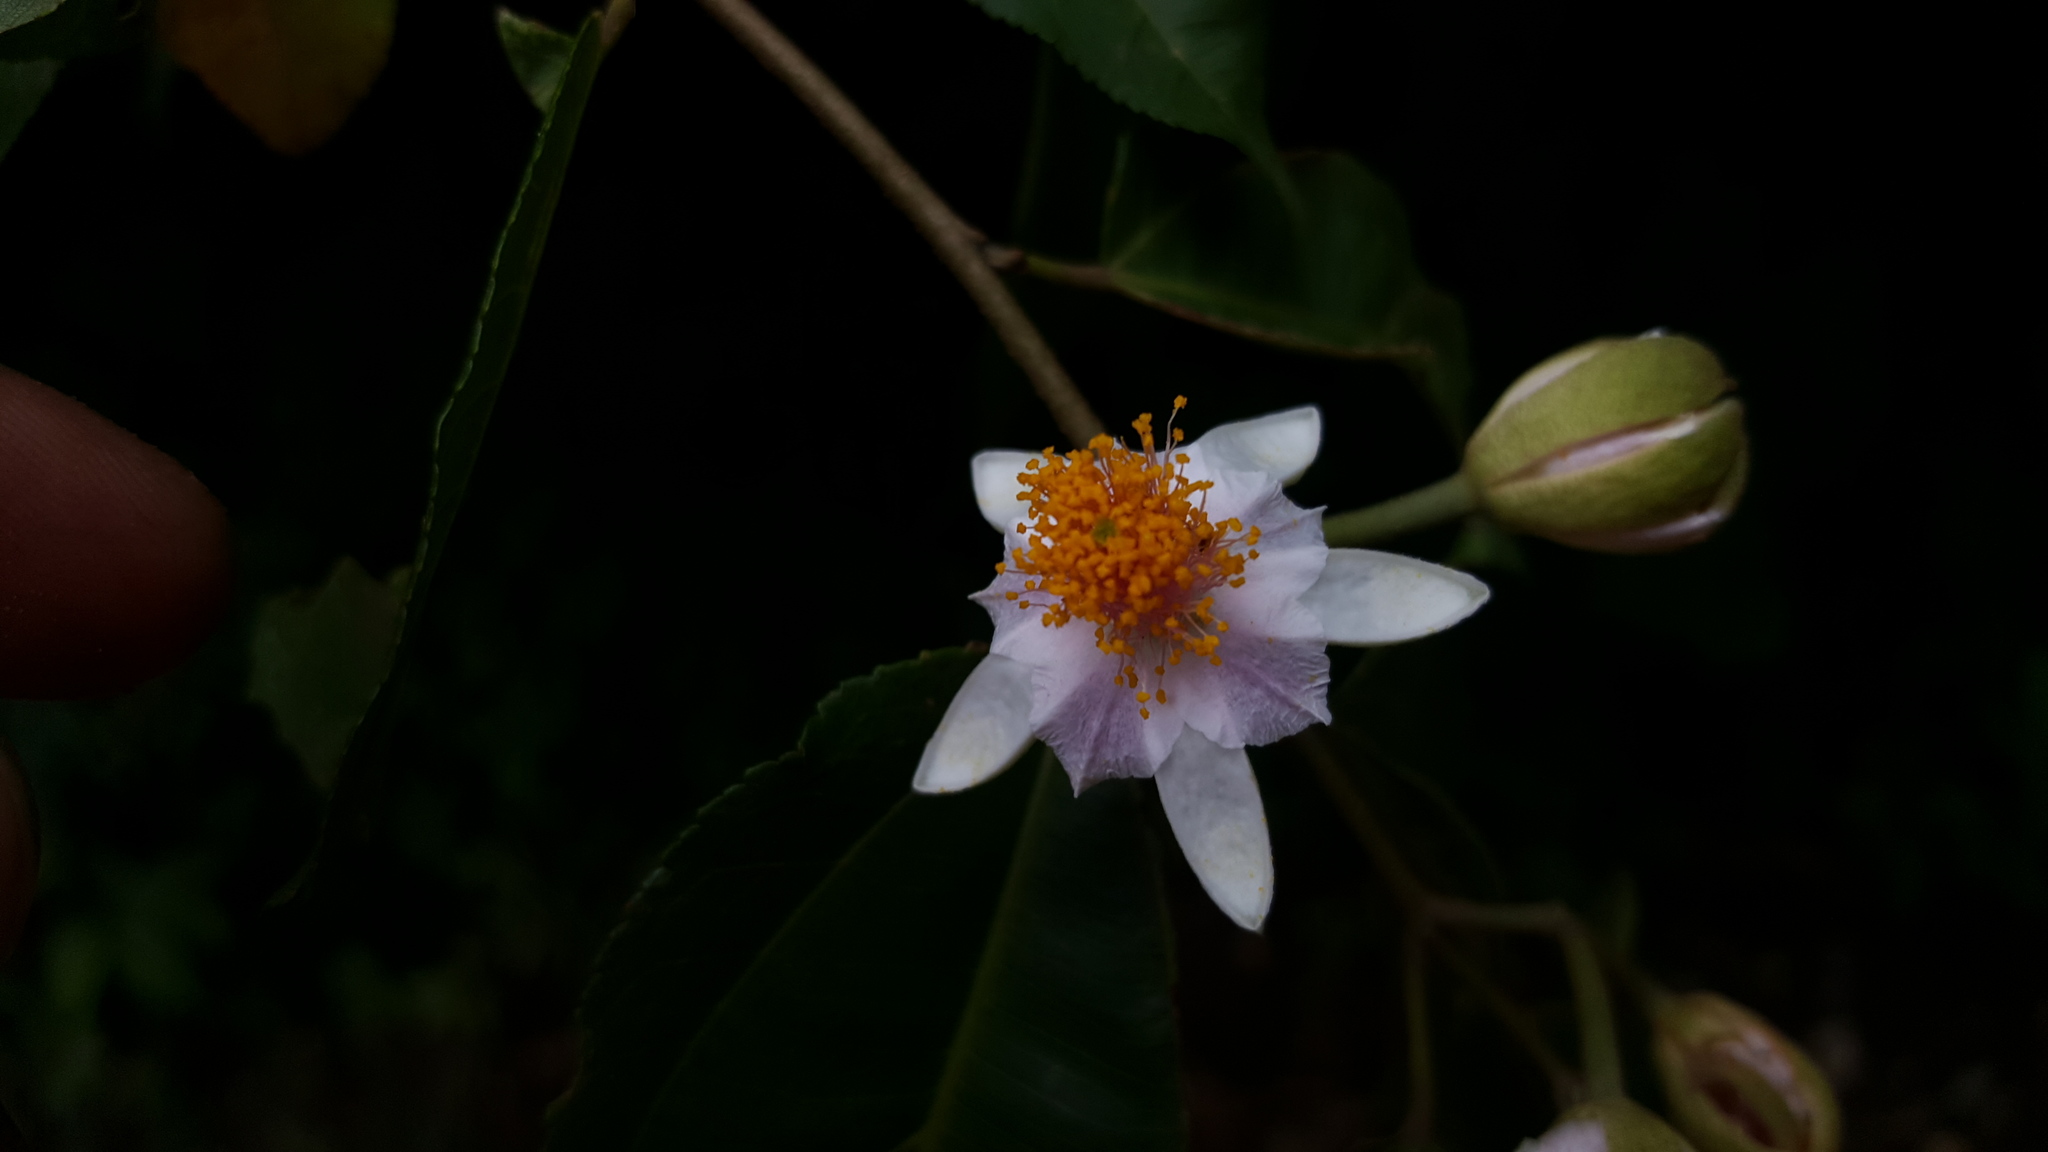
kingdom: Plantae
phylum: Tracheophyta
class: Magnoliopsida
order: Malvales
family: Malvaceae
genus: Grewia
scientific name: Grewia madagascariensis
